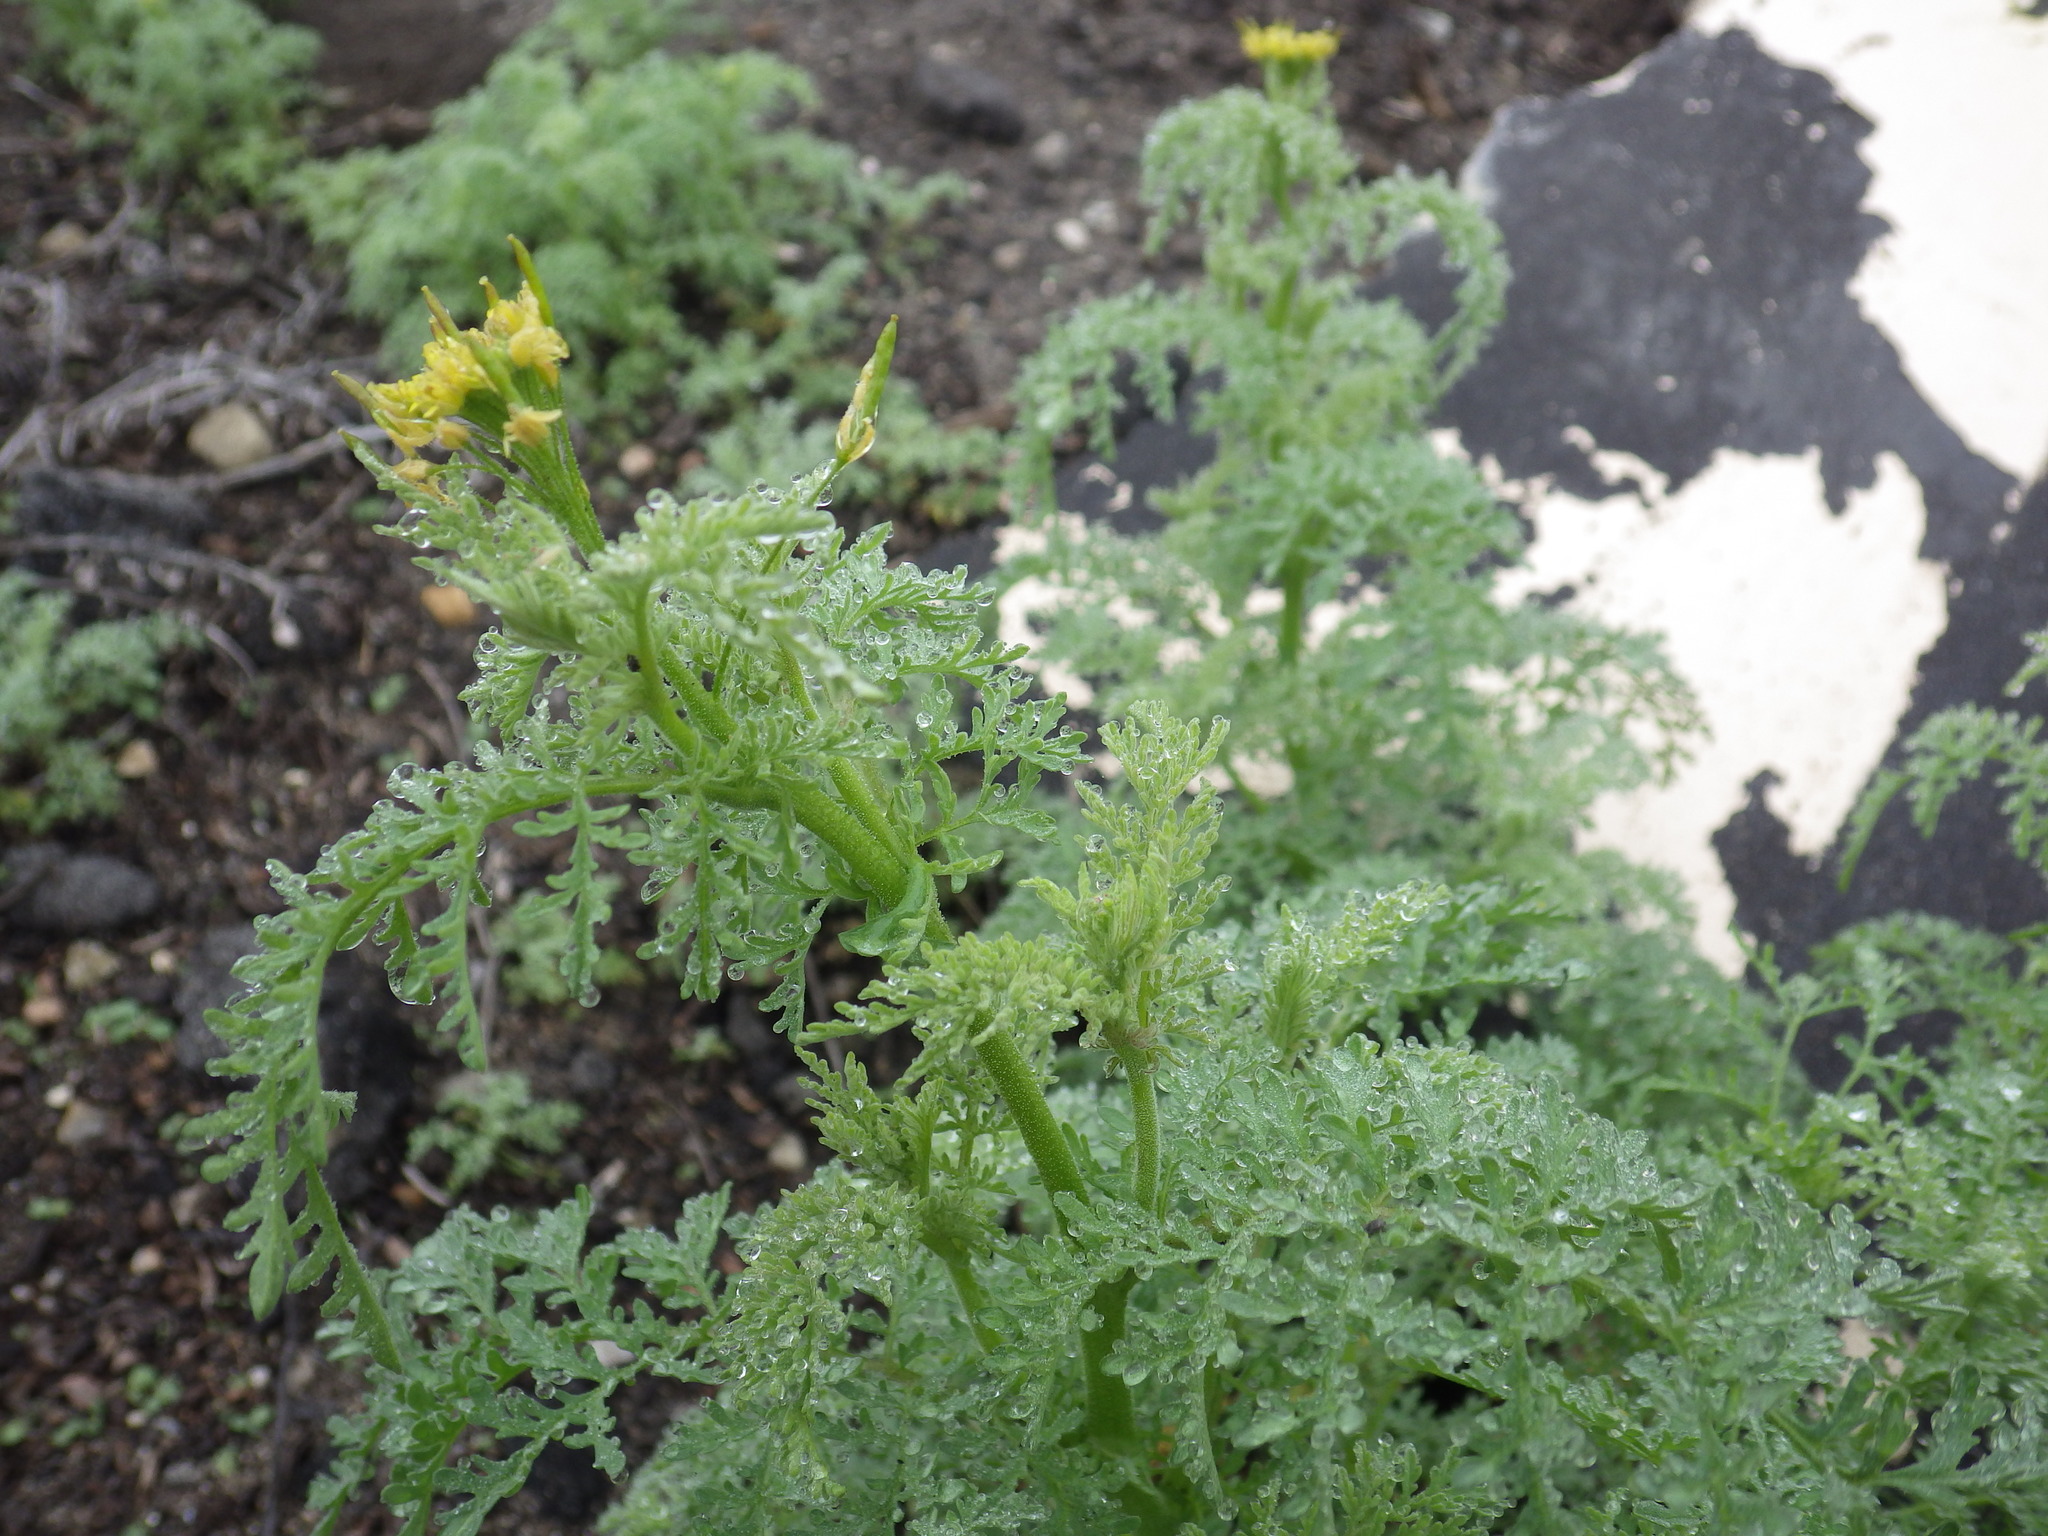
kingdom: Plantae
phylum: Tracheophyta
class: Magnoliopsida
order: Brassicales
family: Brassicaceae
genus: Descurainia
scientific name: Descurainia pinnata
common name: Western tansy mustard
